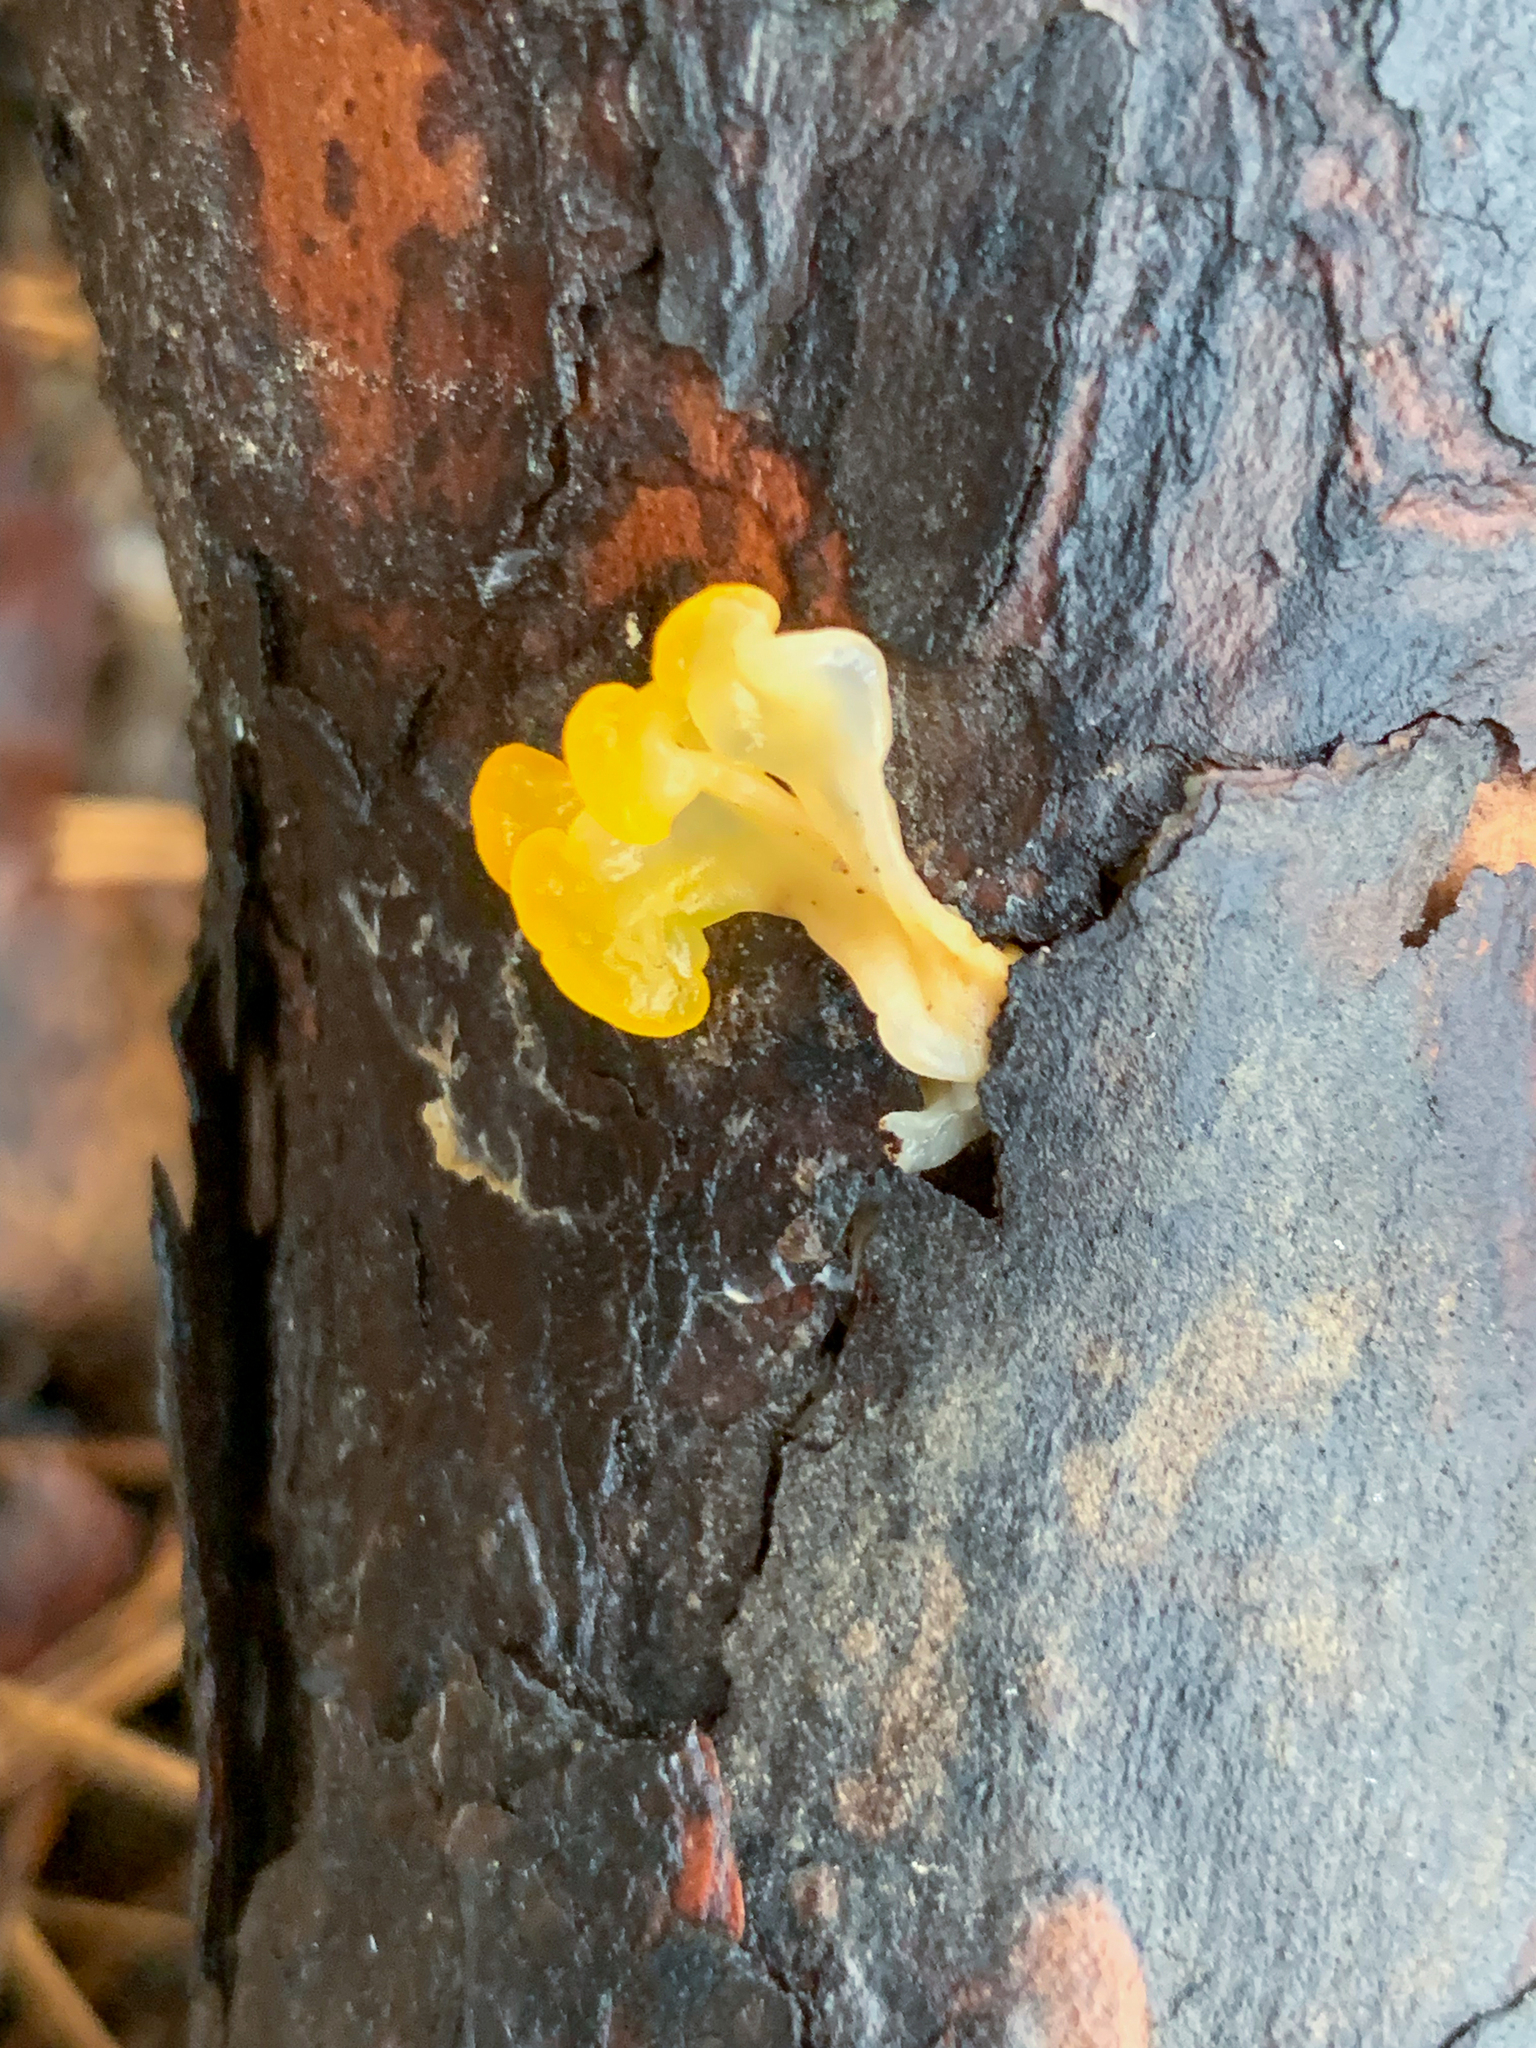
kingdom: Fungi
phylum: Basidiomycota
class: Dacrymycetes
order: Dacrymycetales
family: Dacrymycetaceae
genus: Dacrymyces
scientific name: Dacrymyces spathularius
